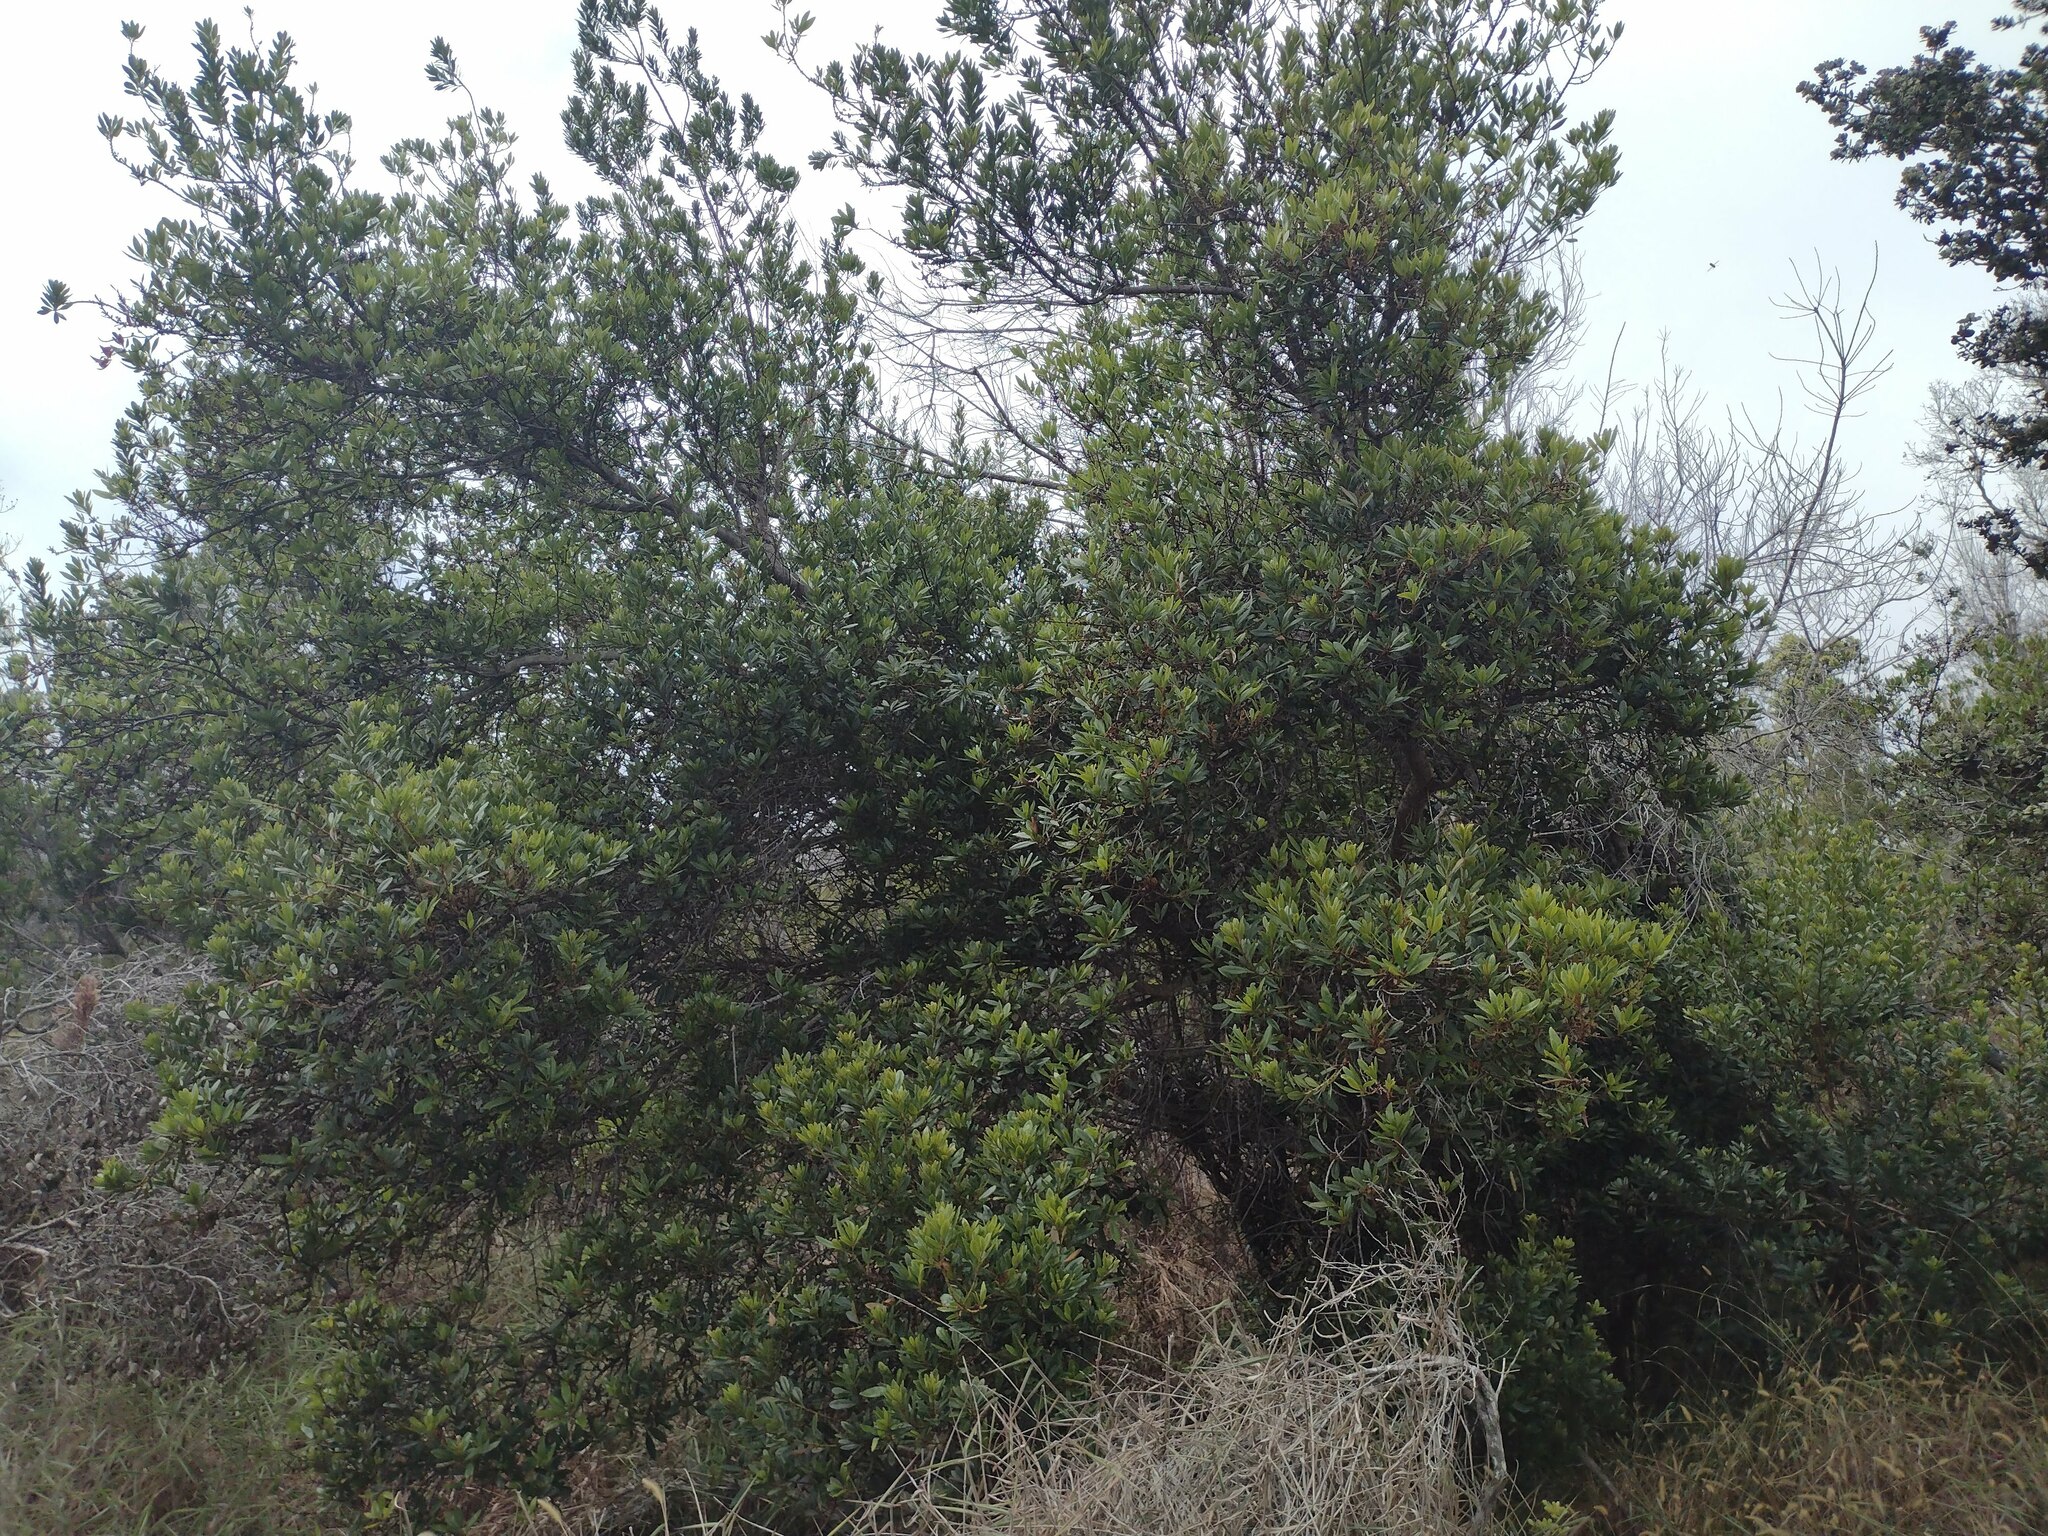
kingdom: Plantae
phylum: Tracheophyta
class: Magnoliopsida
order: Fagales
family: Myricaceae
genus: Morella
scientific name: Morella faya
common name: Firetree
